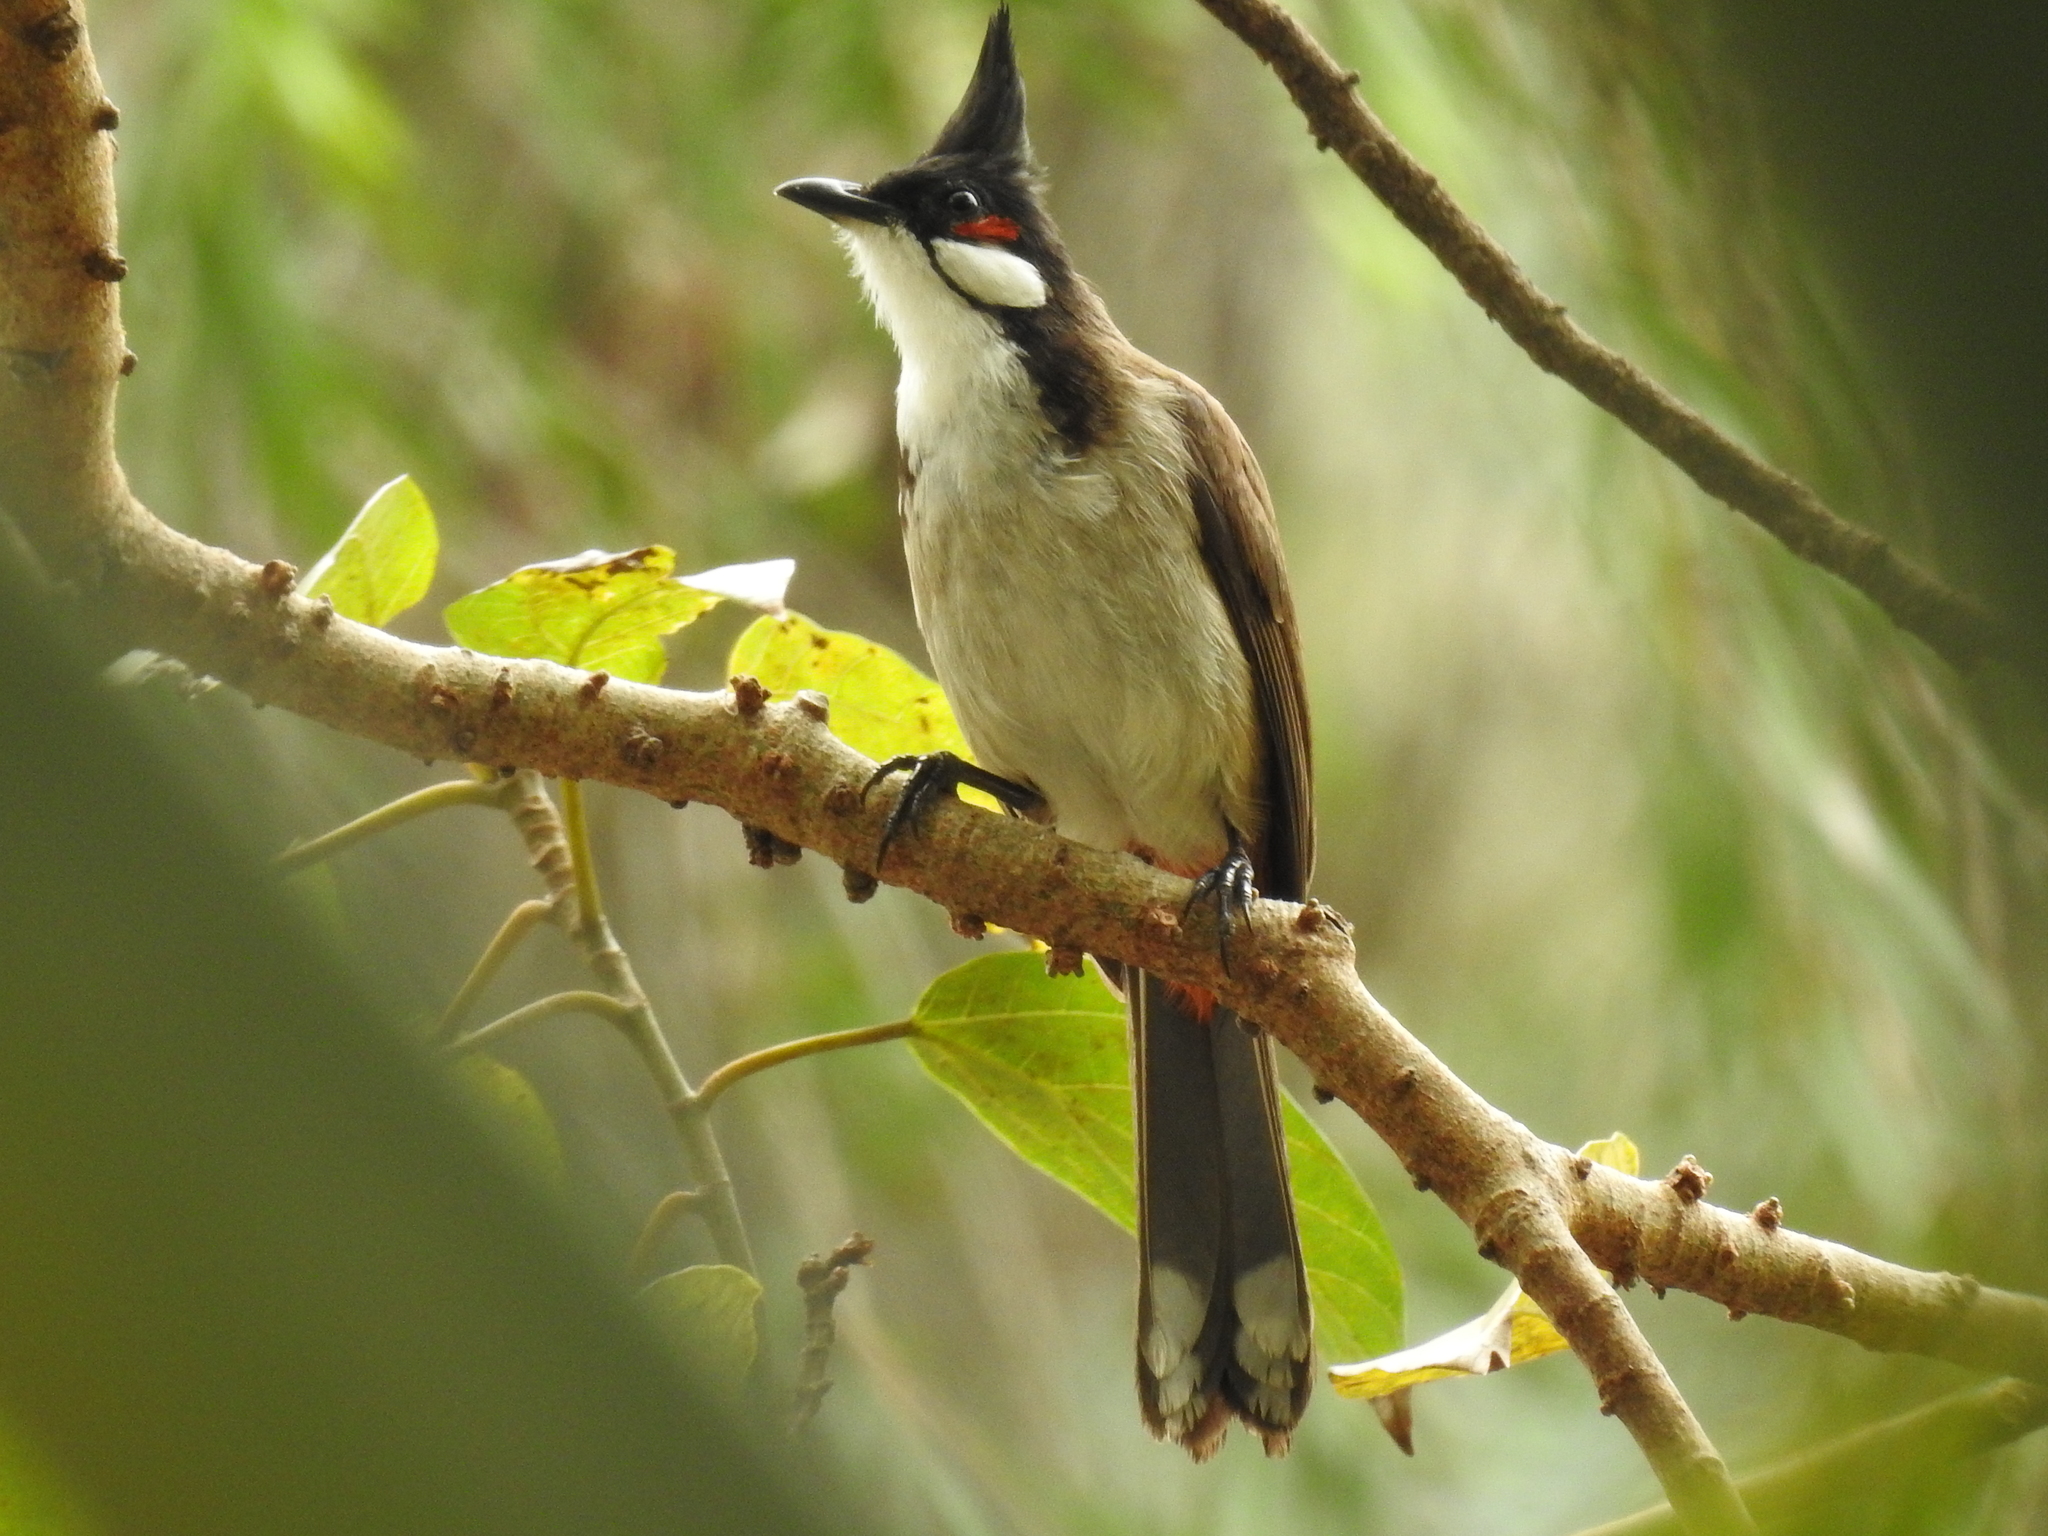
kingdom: Animalia
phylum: Chordata
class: Aves
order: Passeriformes
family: Pycnonotidae
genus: Pycnonotus
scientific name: Pycnonotus jocosus
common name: Red-whiskered bulbul
